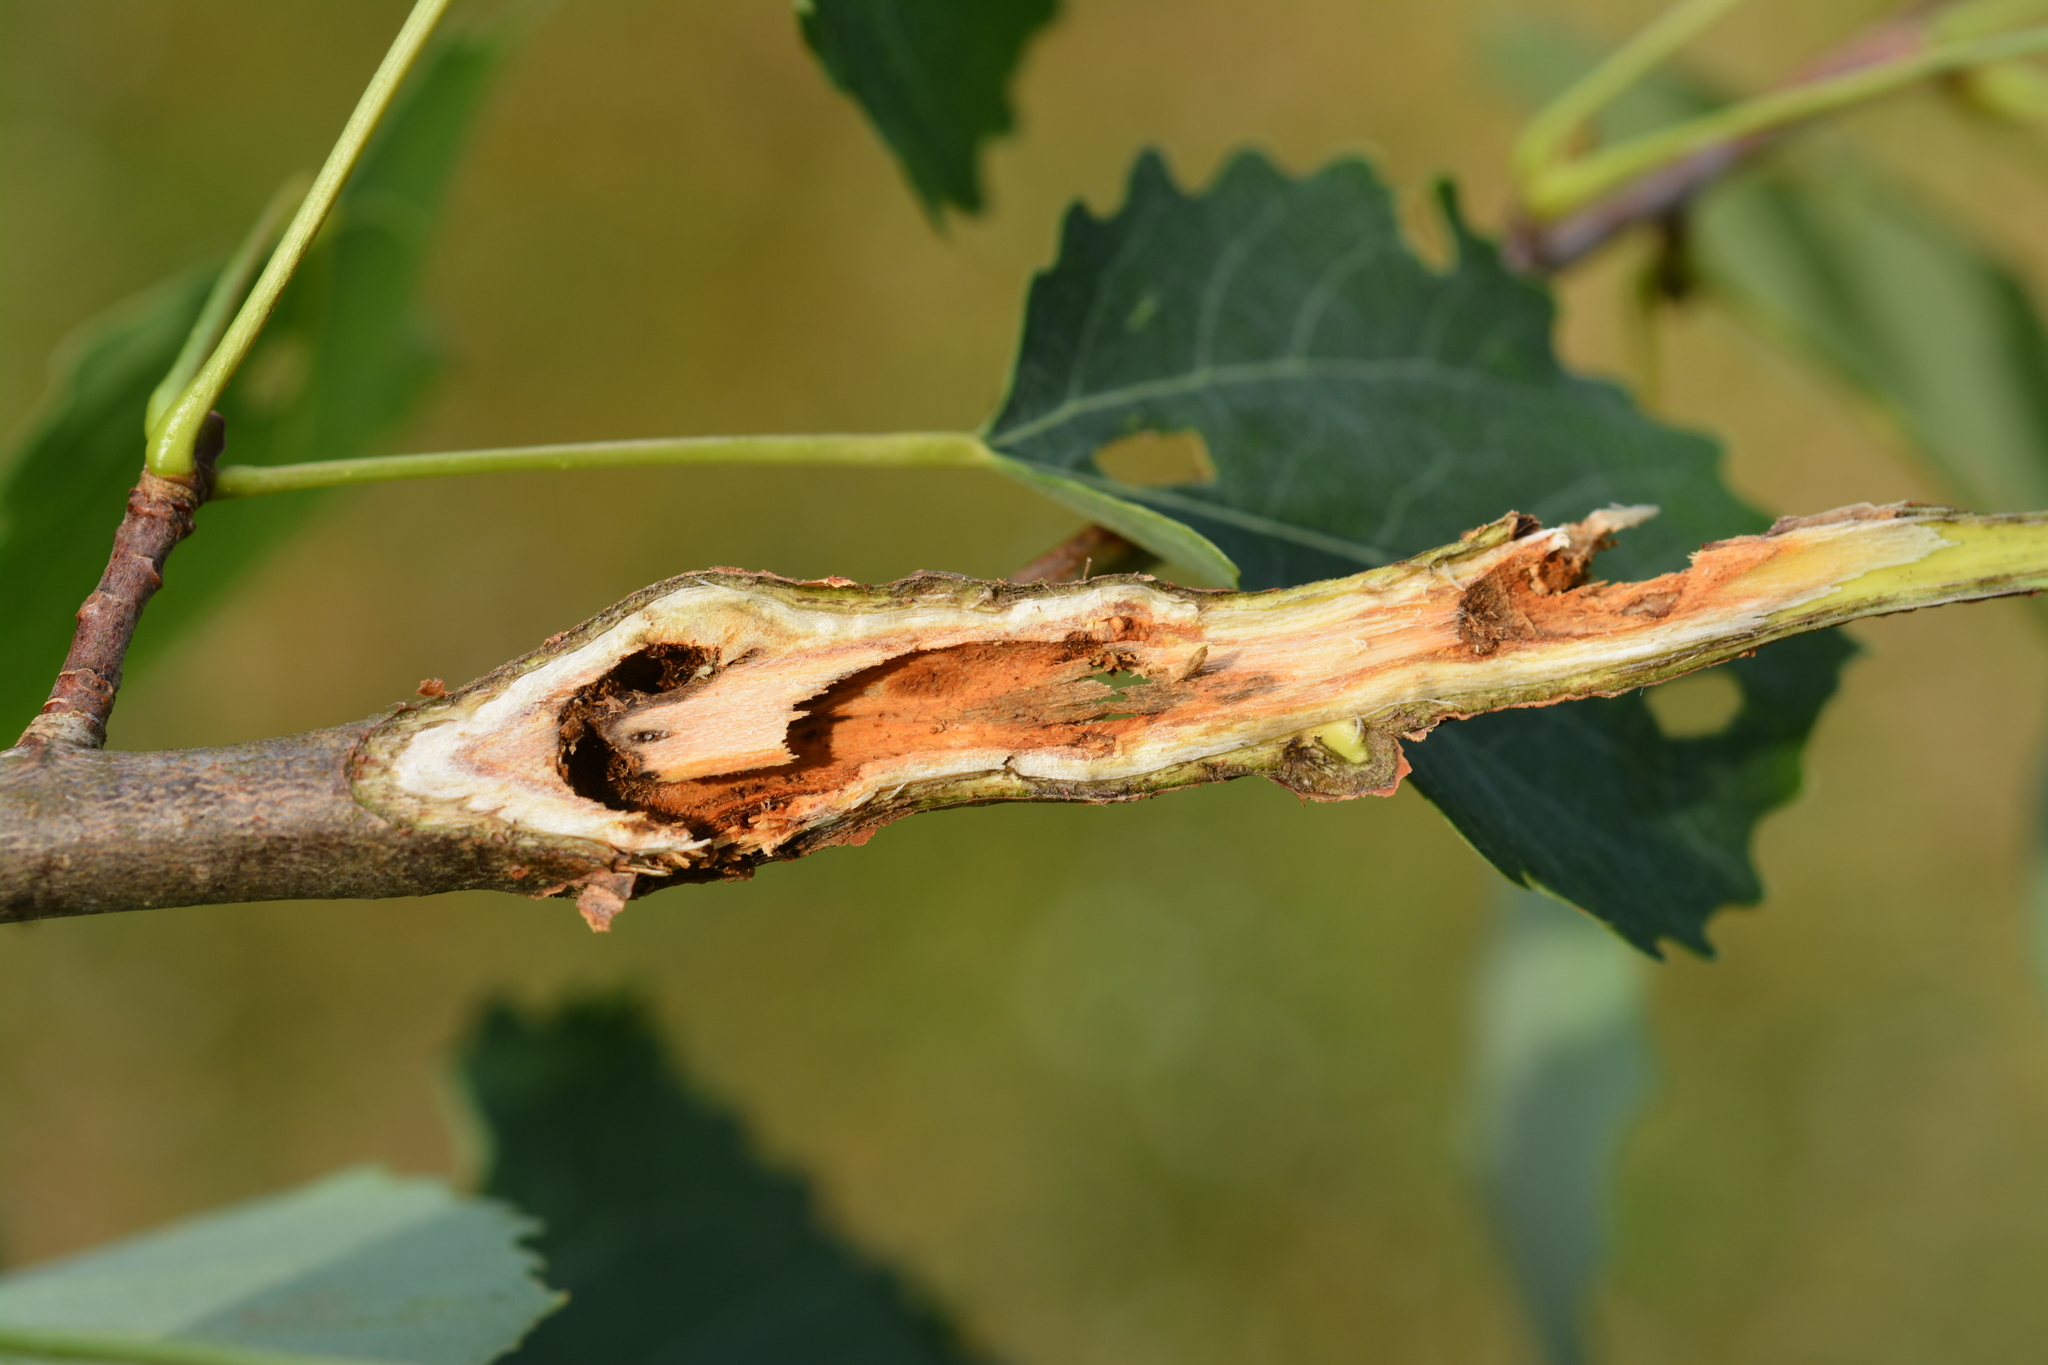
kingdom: Animalia
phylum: Arthropoda
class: Insecta
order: Coleoptera
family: Cerambycidae
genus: Saperda
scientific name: Saperda populnea
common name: Small poplar borer
